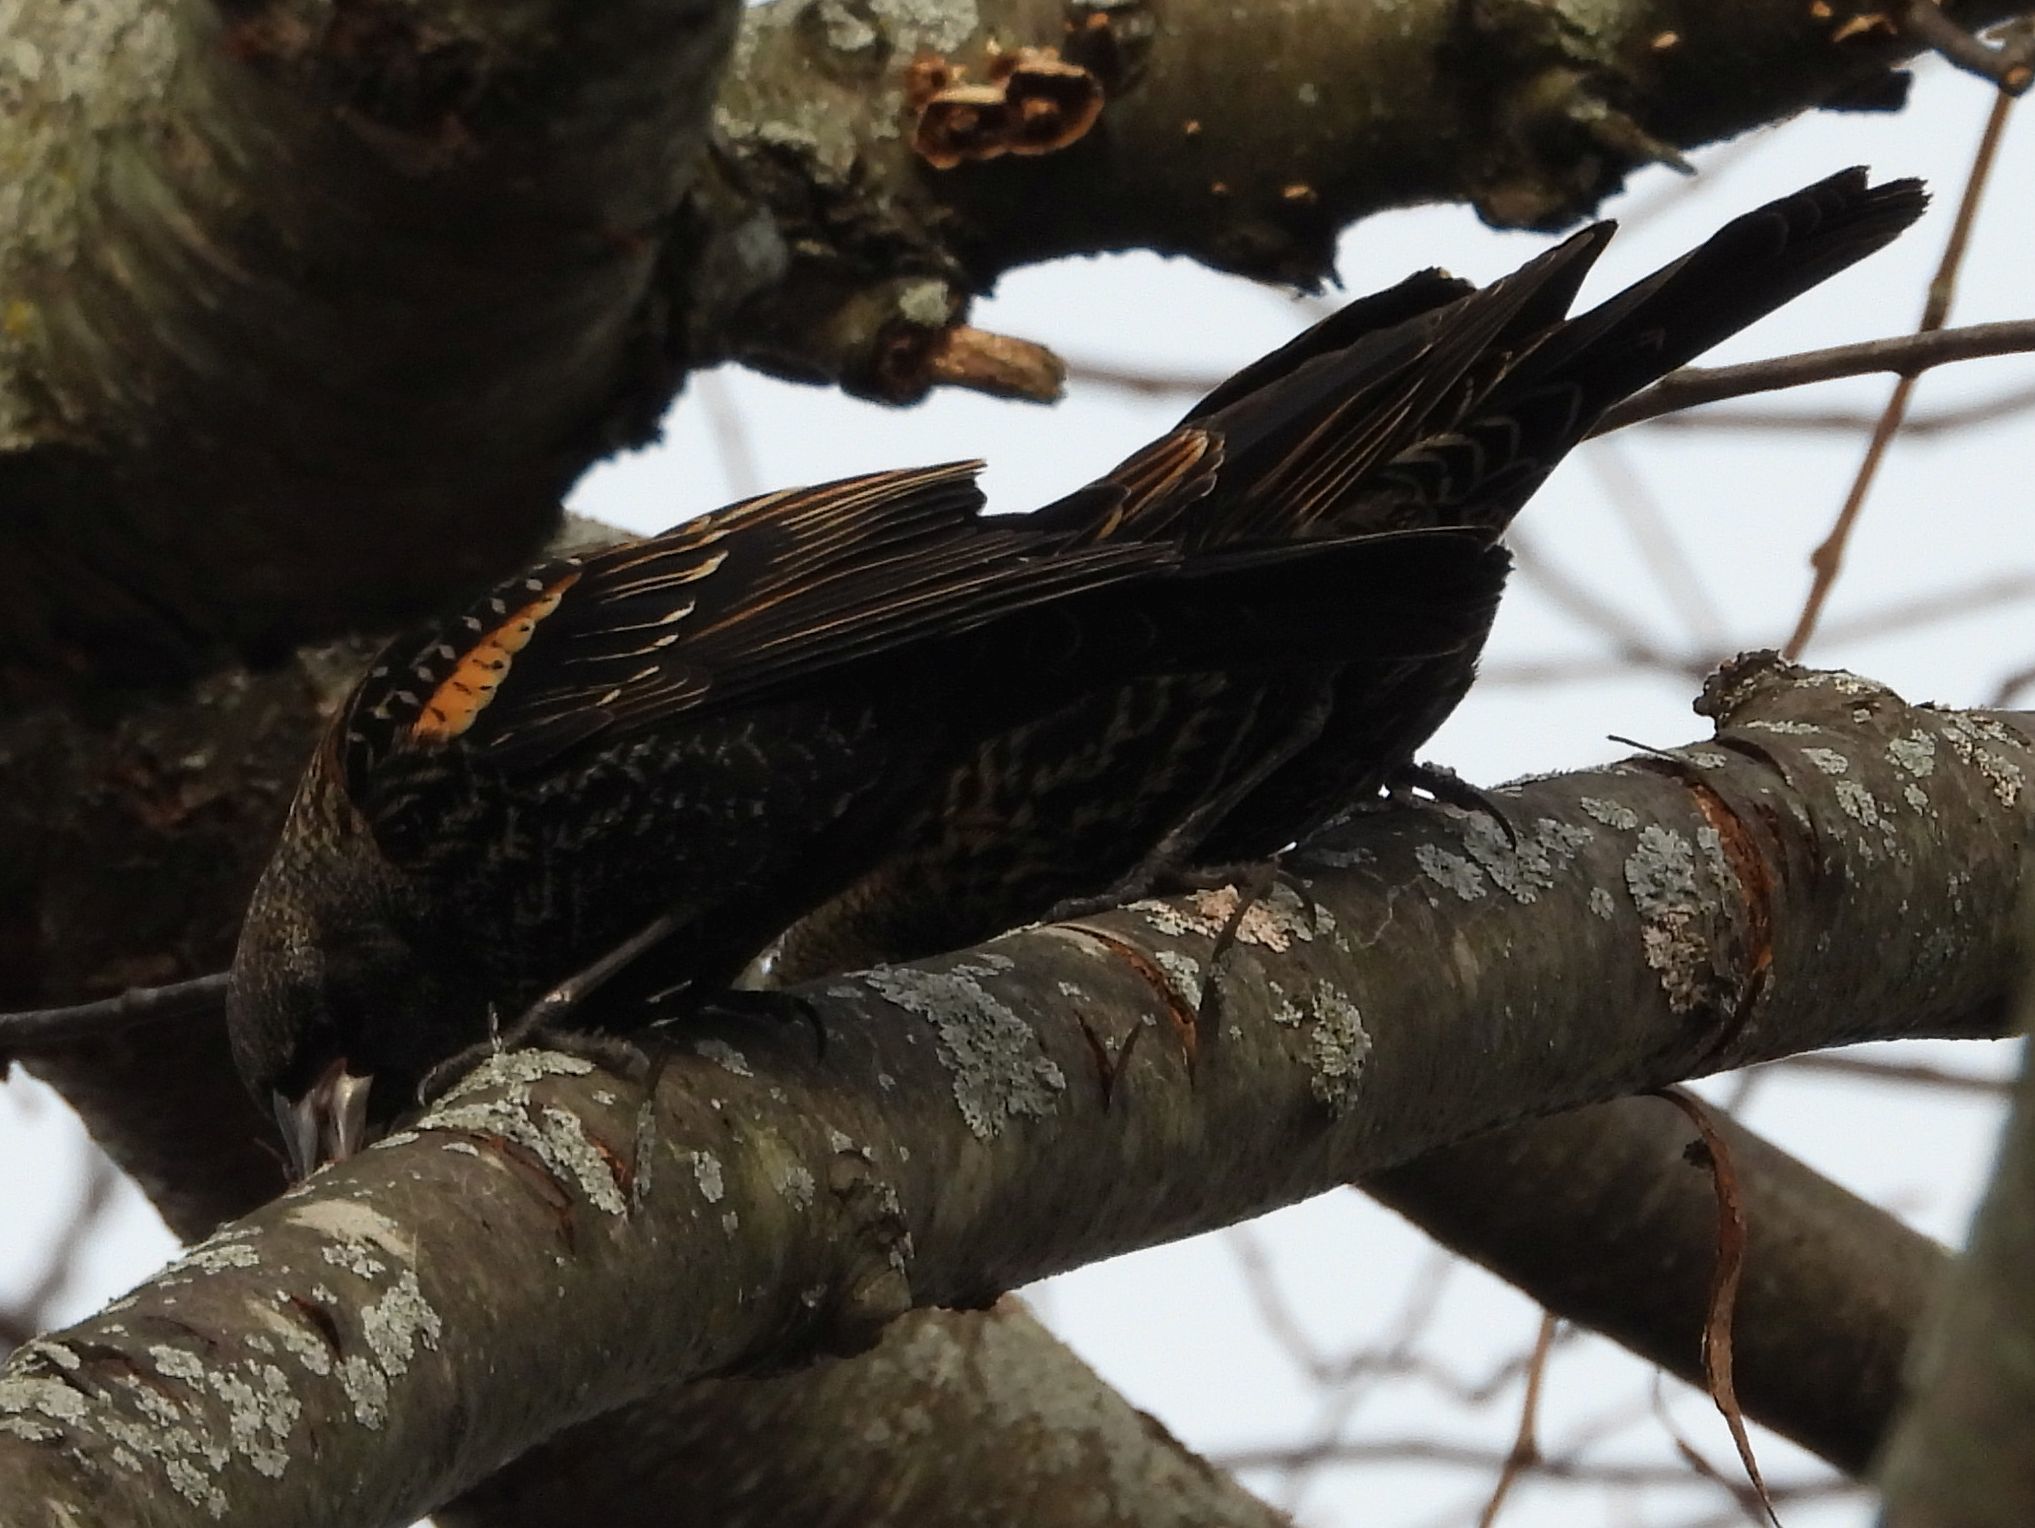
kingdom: Animalia
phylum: Chordata
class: Aves
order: Passeriformes
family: Icteridae
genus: Agelaius
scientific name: Agelaius phoeniceus
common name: Red-winged blackbird
